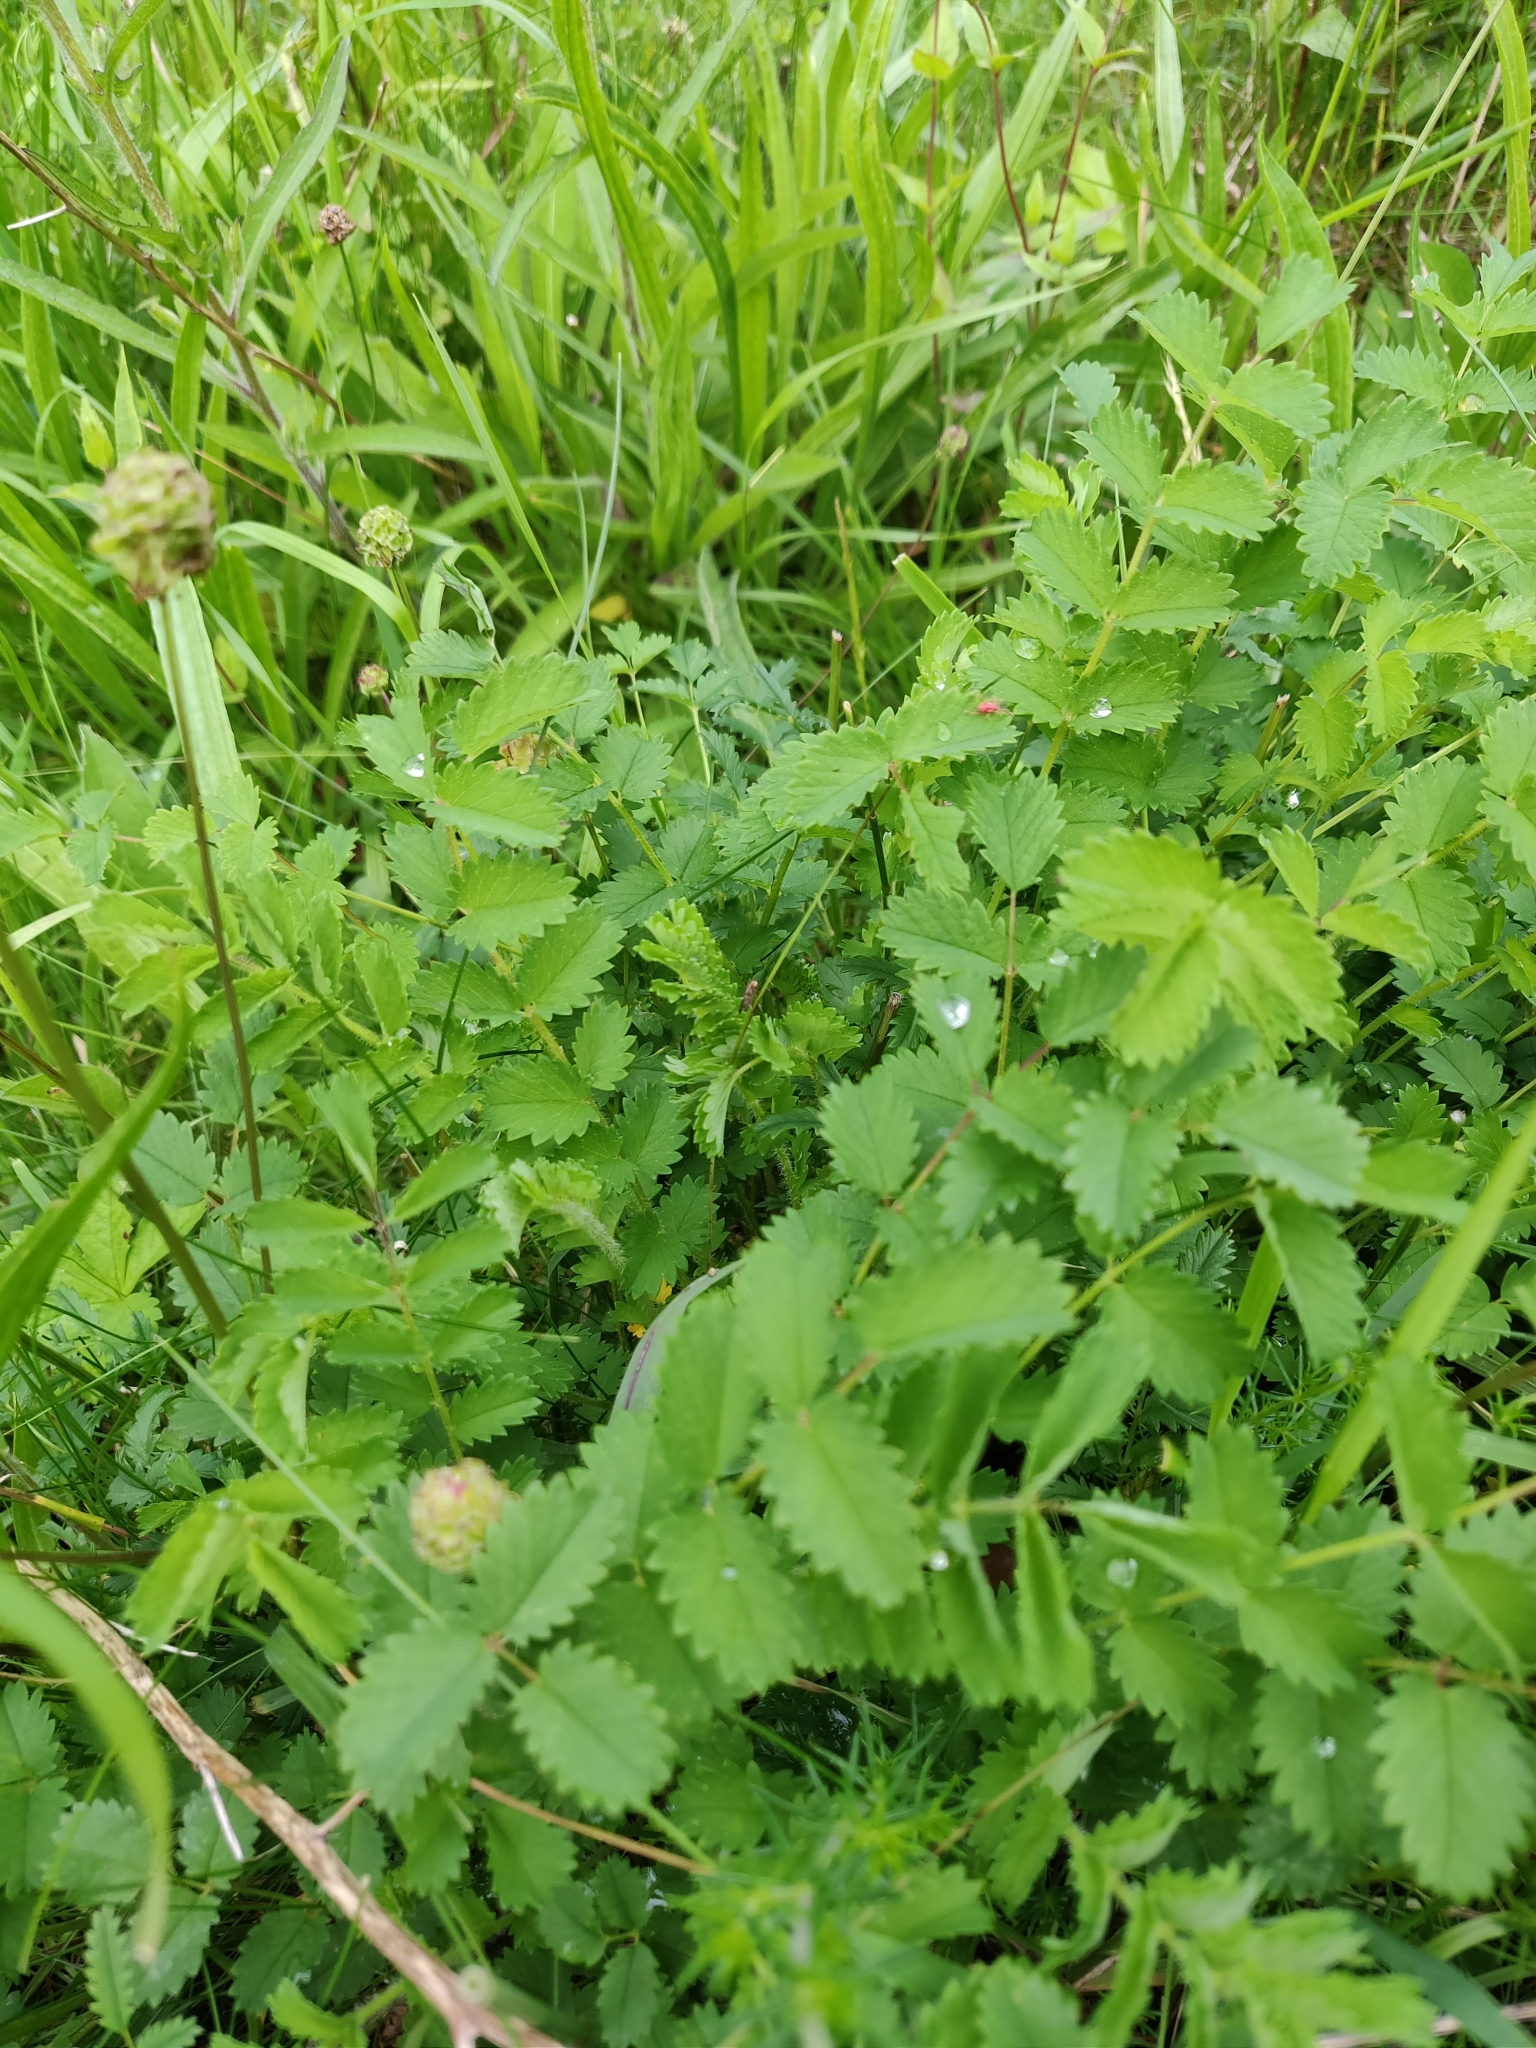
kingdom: Plantae
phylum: Tracheophyta
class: Magnoliopsida
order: Rosales
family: Rosaceae
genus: Poterium
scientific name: Poterium sanguisorba
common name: Salad burnet
